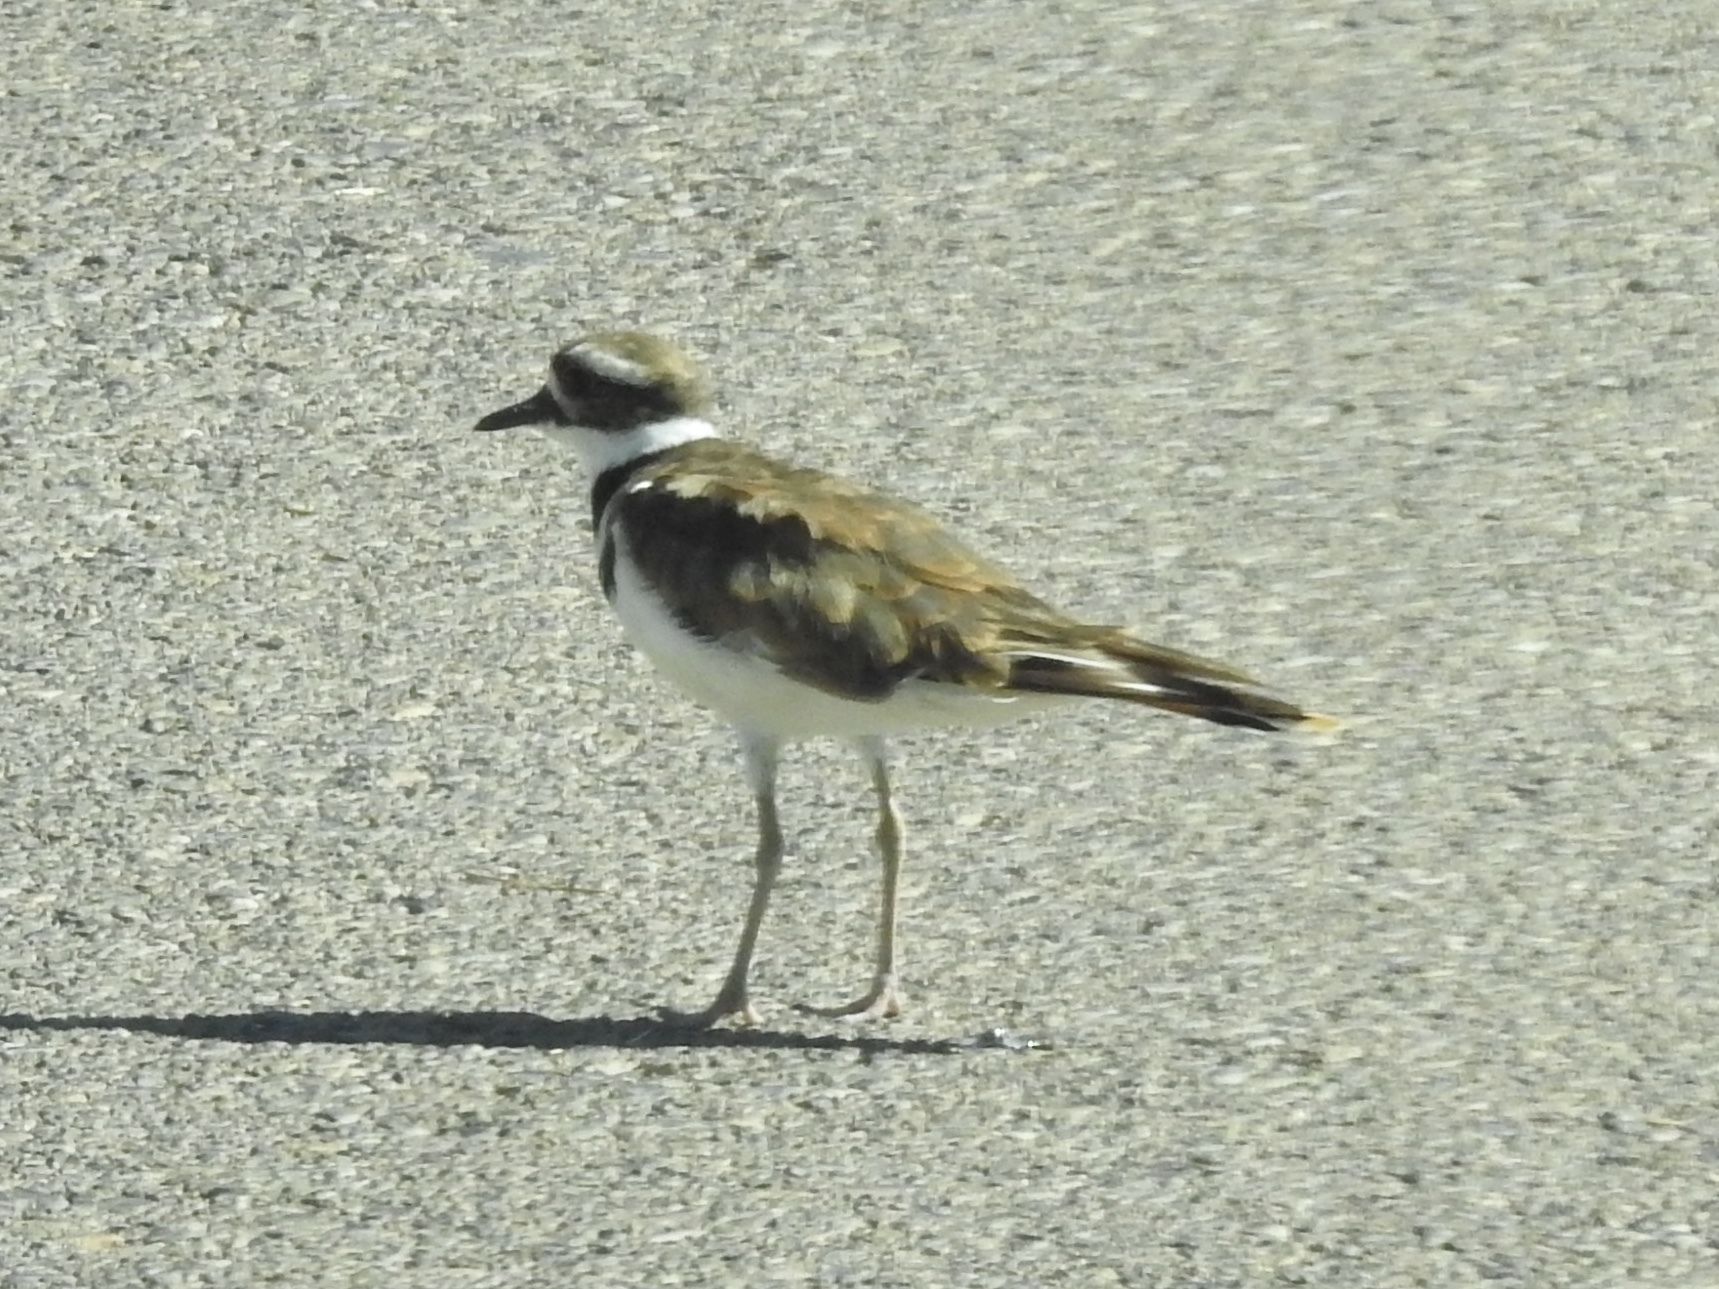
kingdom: Animalia
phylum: Chordata
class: Aves
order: Charadriiformes
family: Charadriidae
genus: Charadrius
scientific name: Charadrius vociferus
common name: Killdeer
